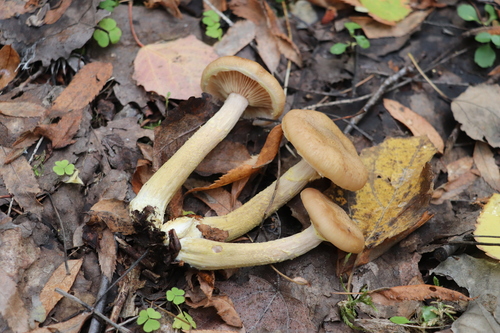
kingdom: Fungi
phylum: Basidiomycota
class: Agaricomycetes
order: Agaricales
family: Physalacriaceae
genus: Armillaria
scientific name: Armillaria cepistipes
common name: Mullet honey fungus
